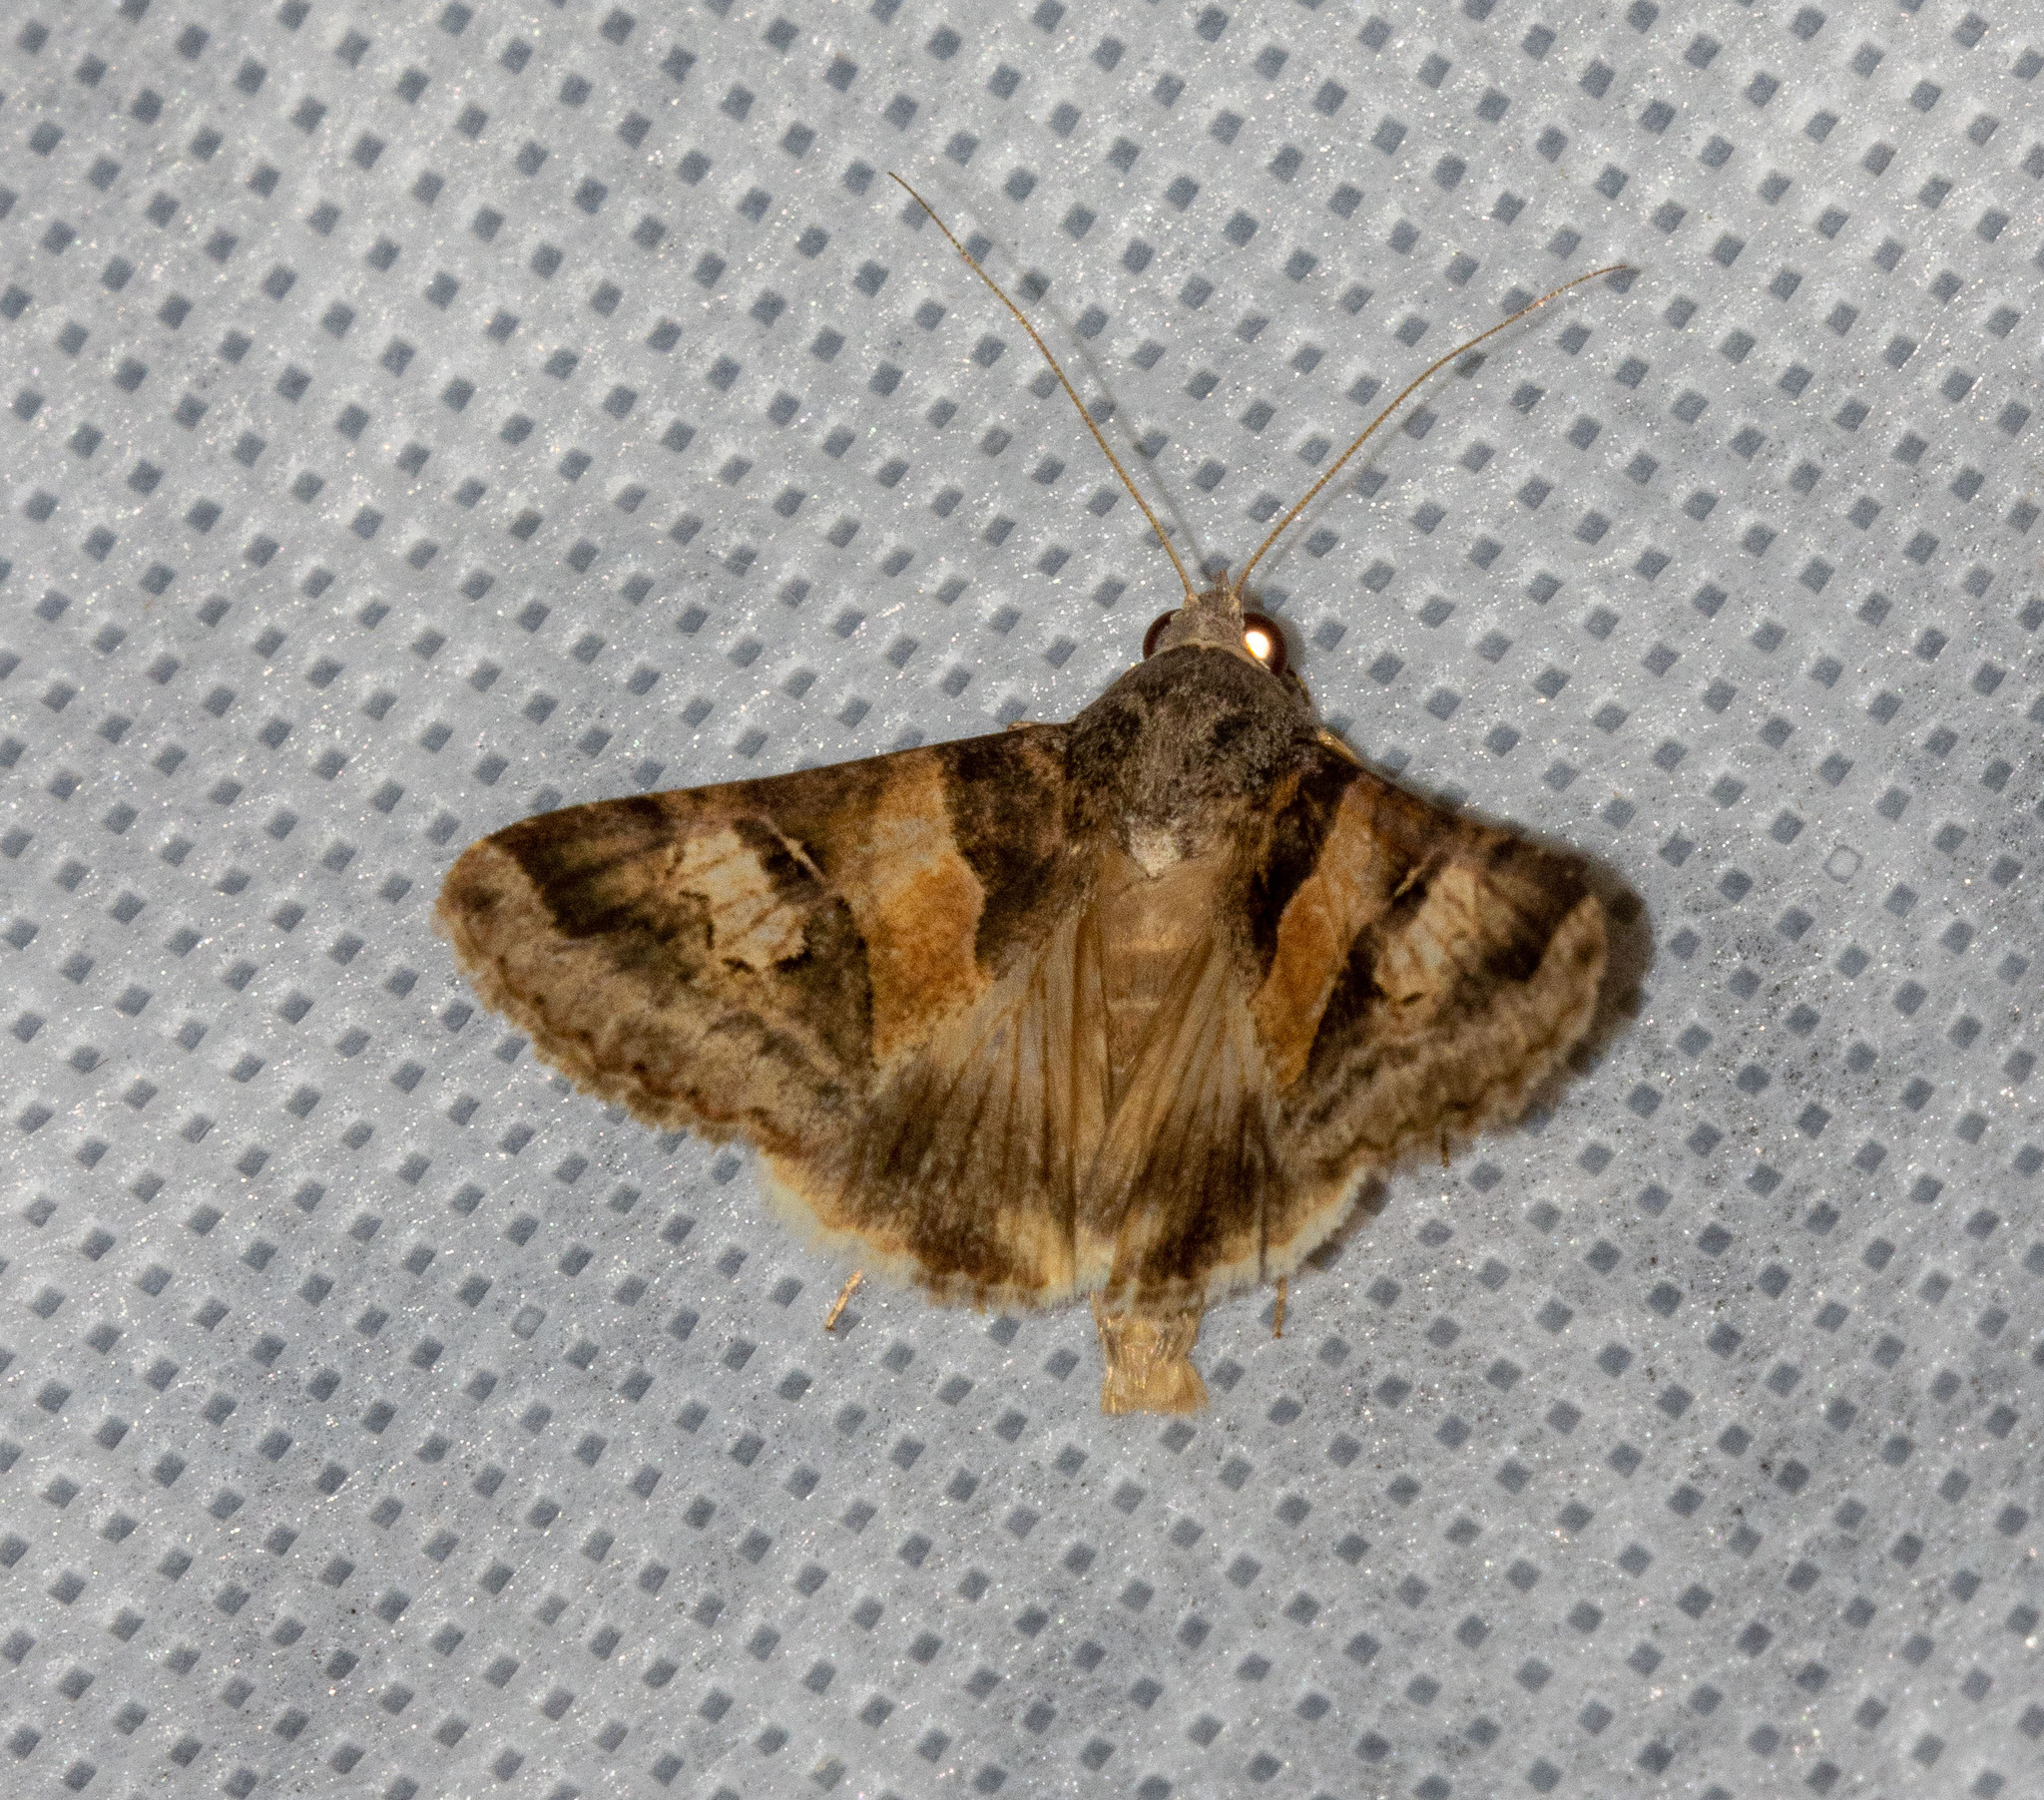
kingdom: Animalia
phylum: Arthropoda
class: Insecta
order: Lepidoptera
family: Erebidae
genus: Melipotis
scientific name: Melipotis ochrodes
